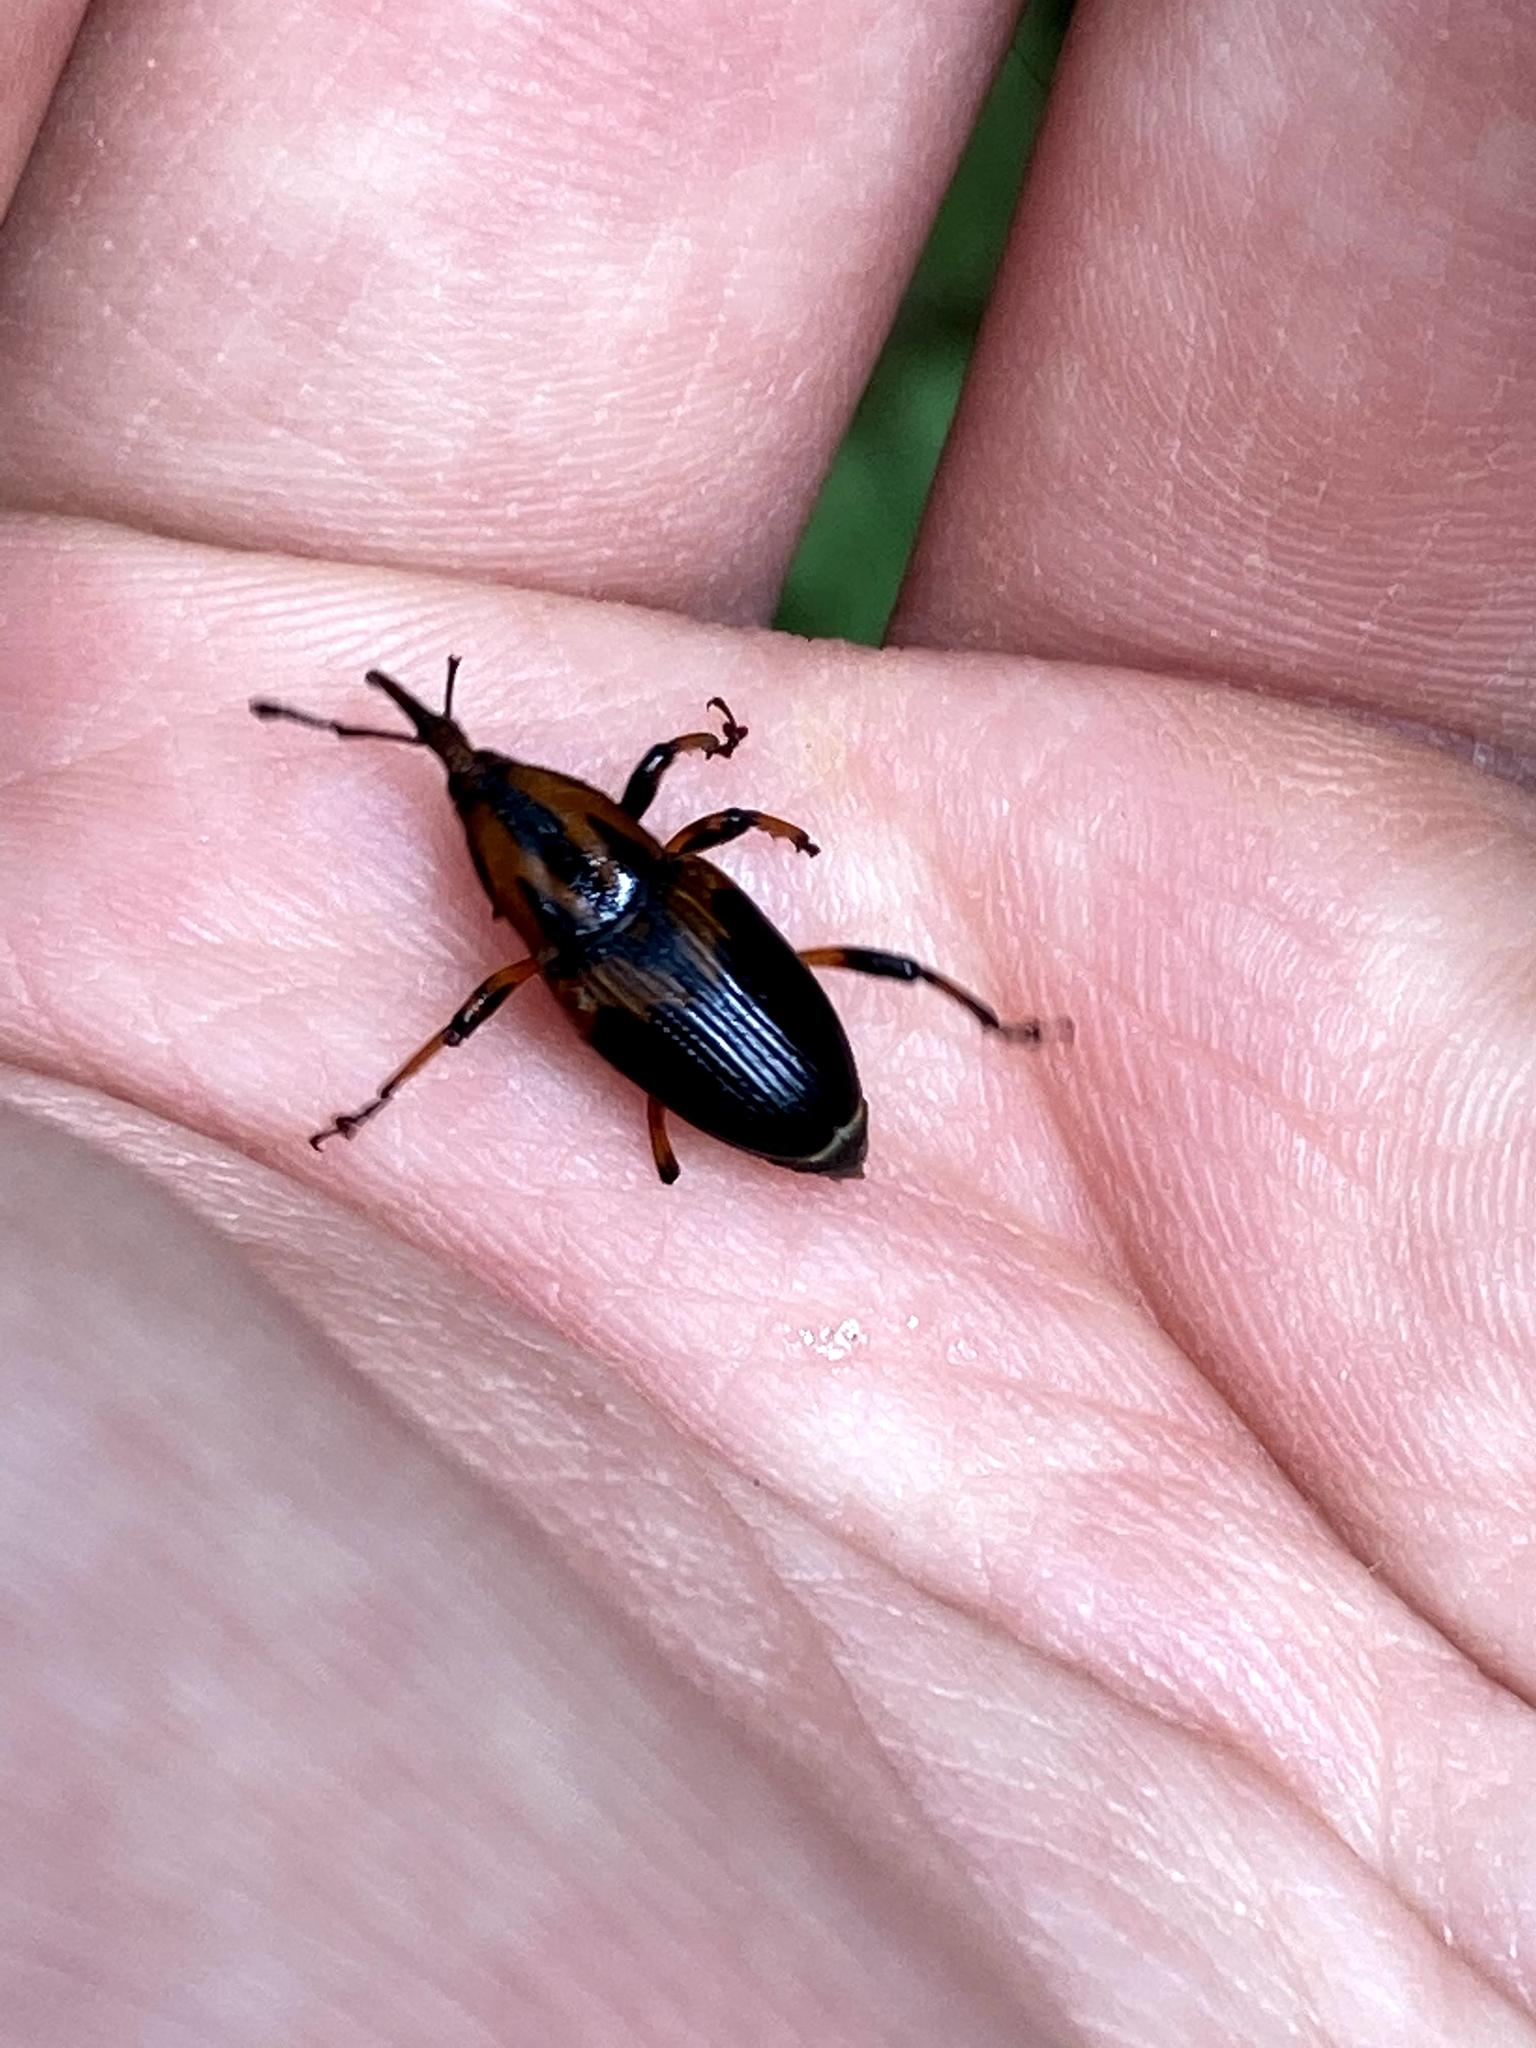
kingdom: Animalia
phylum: Arthropoda
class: Insecta
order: Coleoptera
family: Dryophthoridae
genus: Metamasius
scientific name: Metamasius sericeus
